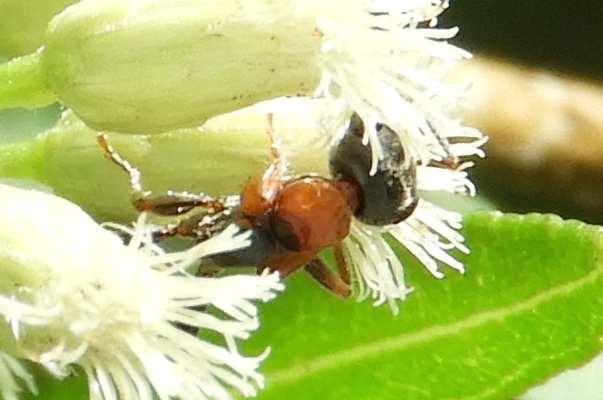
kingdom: Animalia
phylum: Arthropoda
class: Insecta
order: Hymenoptera
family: Formicidae
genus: Pseudomyrmex
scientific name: Pseudomyrmex gracilis
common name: Graceful twig ant
